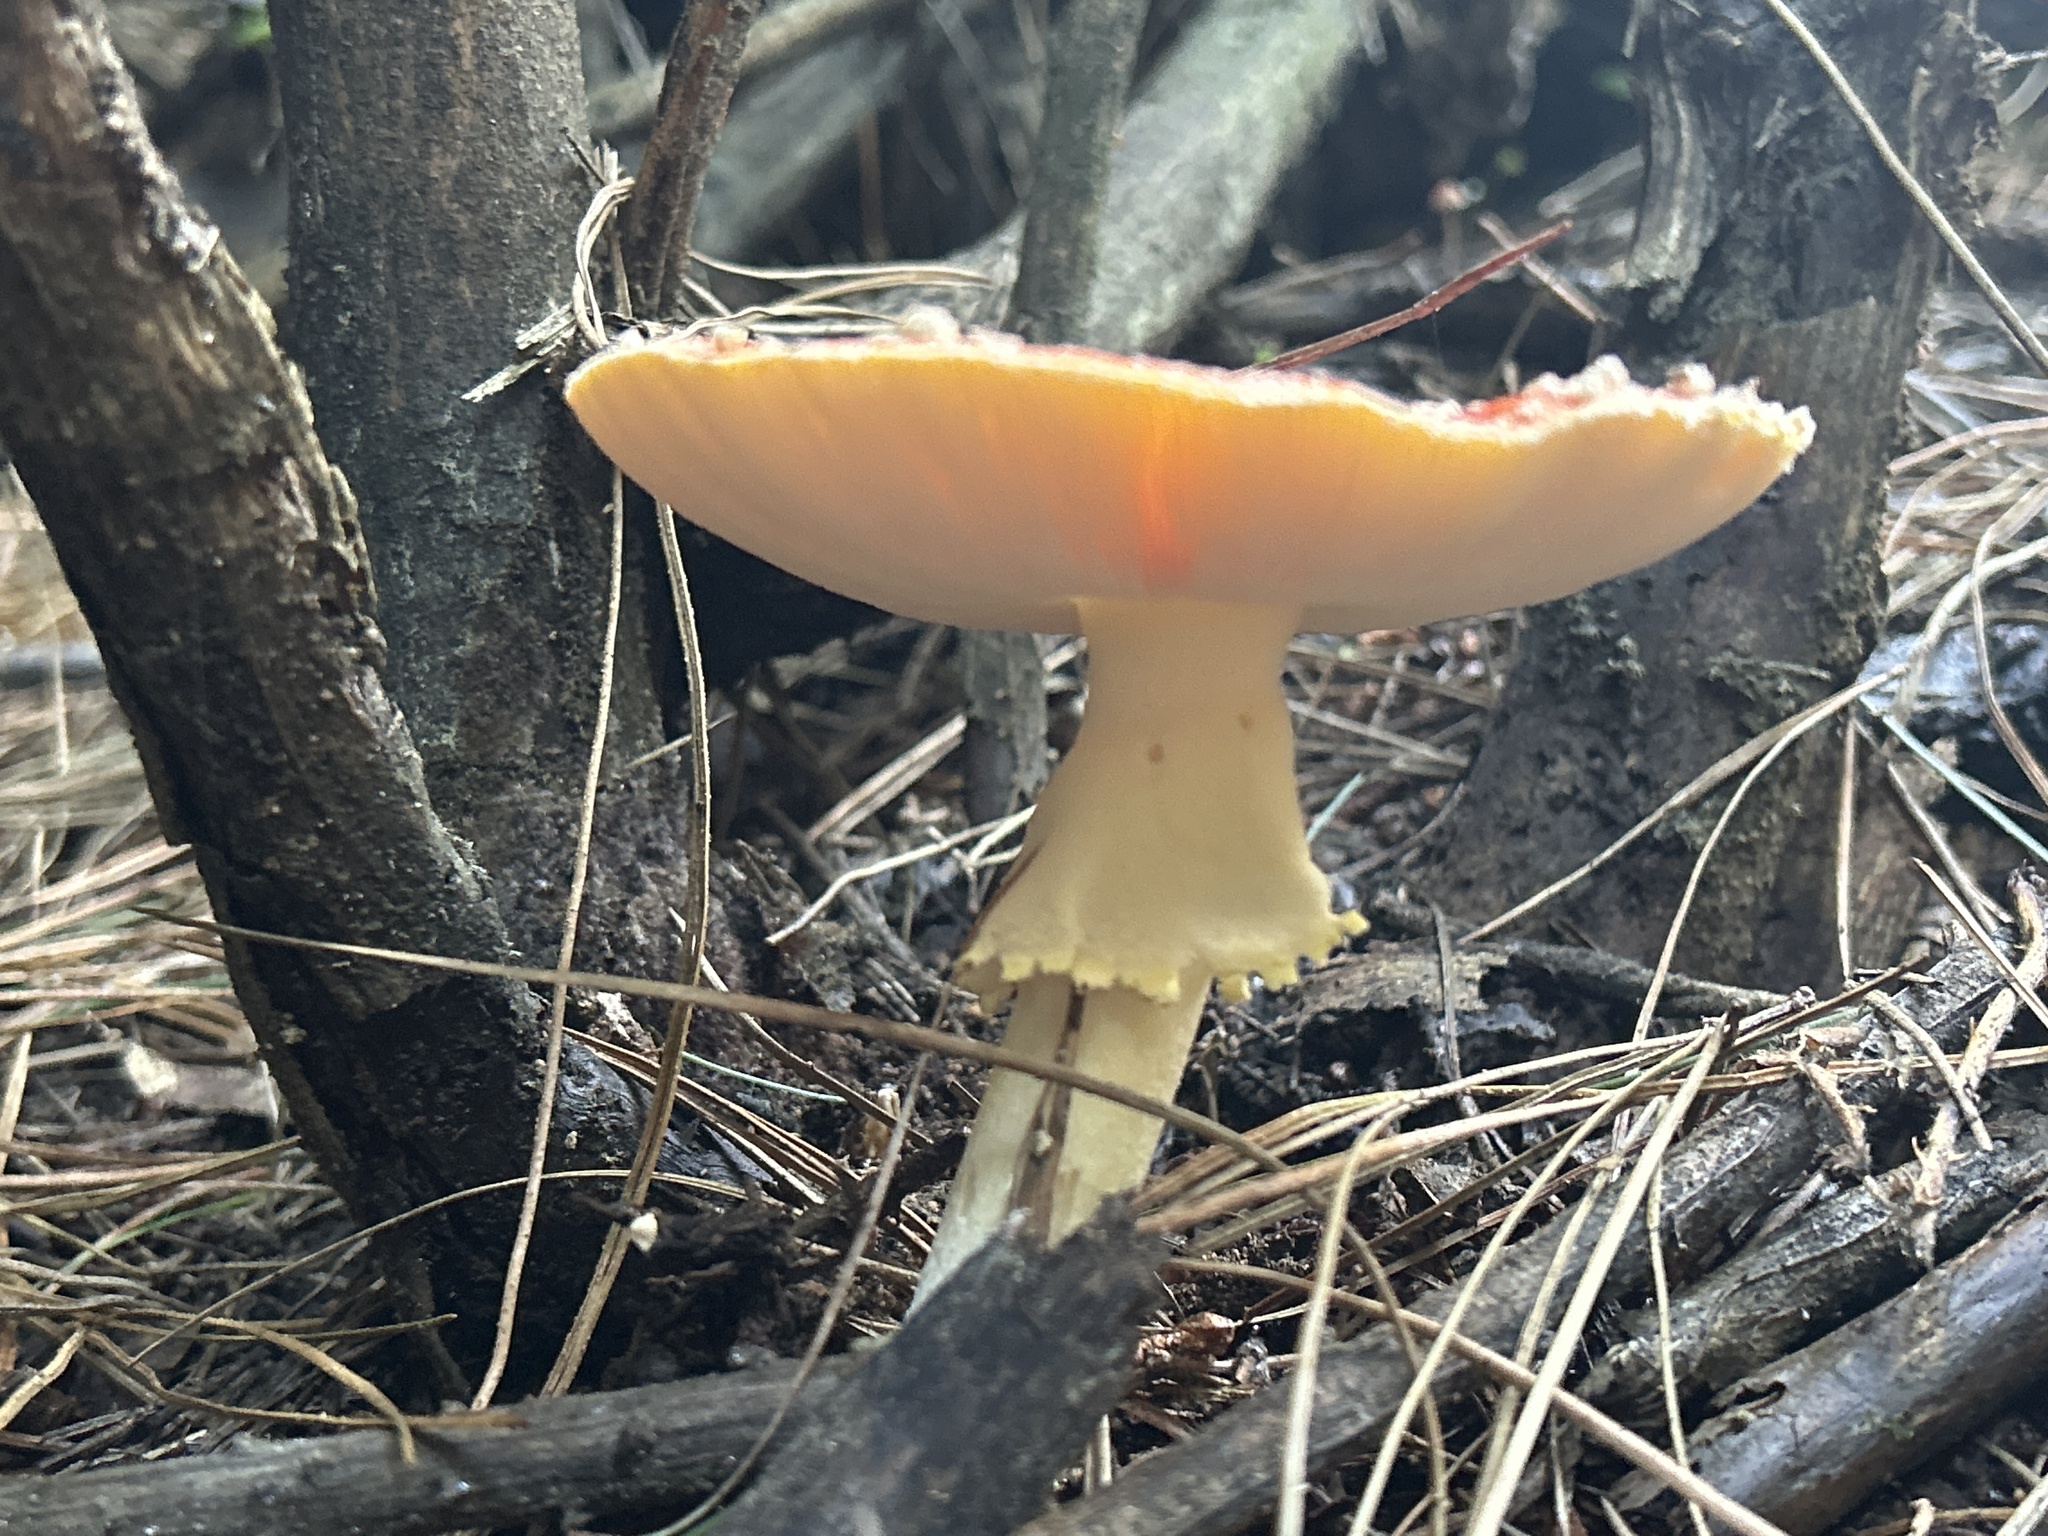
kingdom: Fungi
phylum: Basidiomycota
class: Agaricomycetes
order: Agaricales
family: Amanitaceae
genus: Amanita
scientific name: Amanita muscaria
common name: Fly agaric
